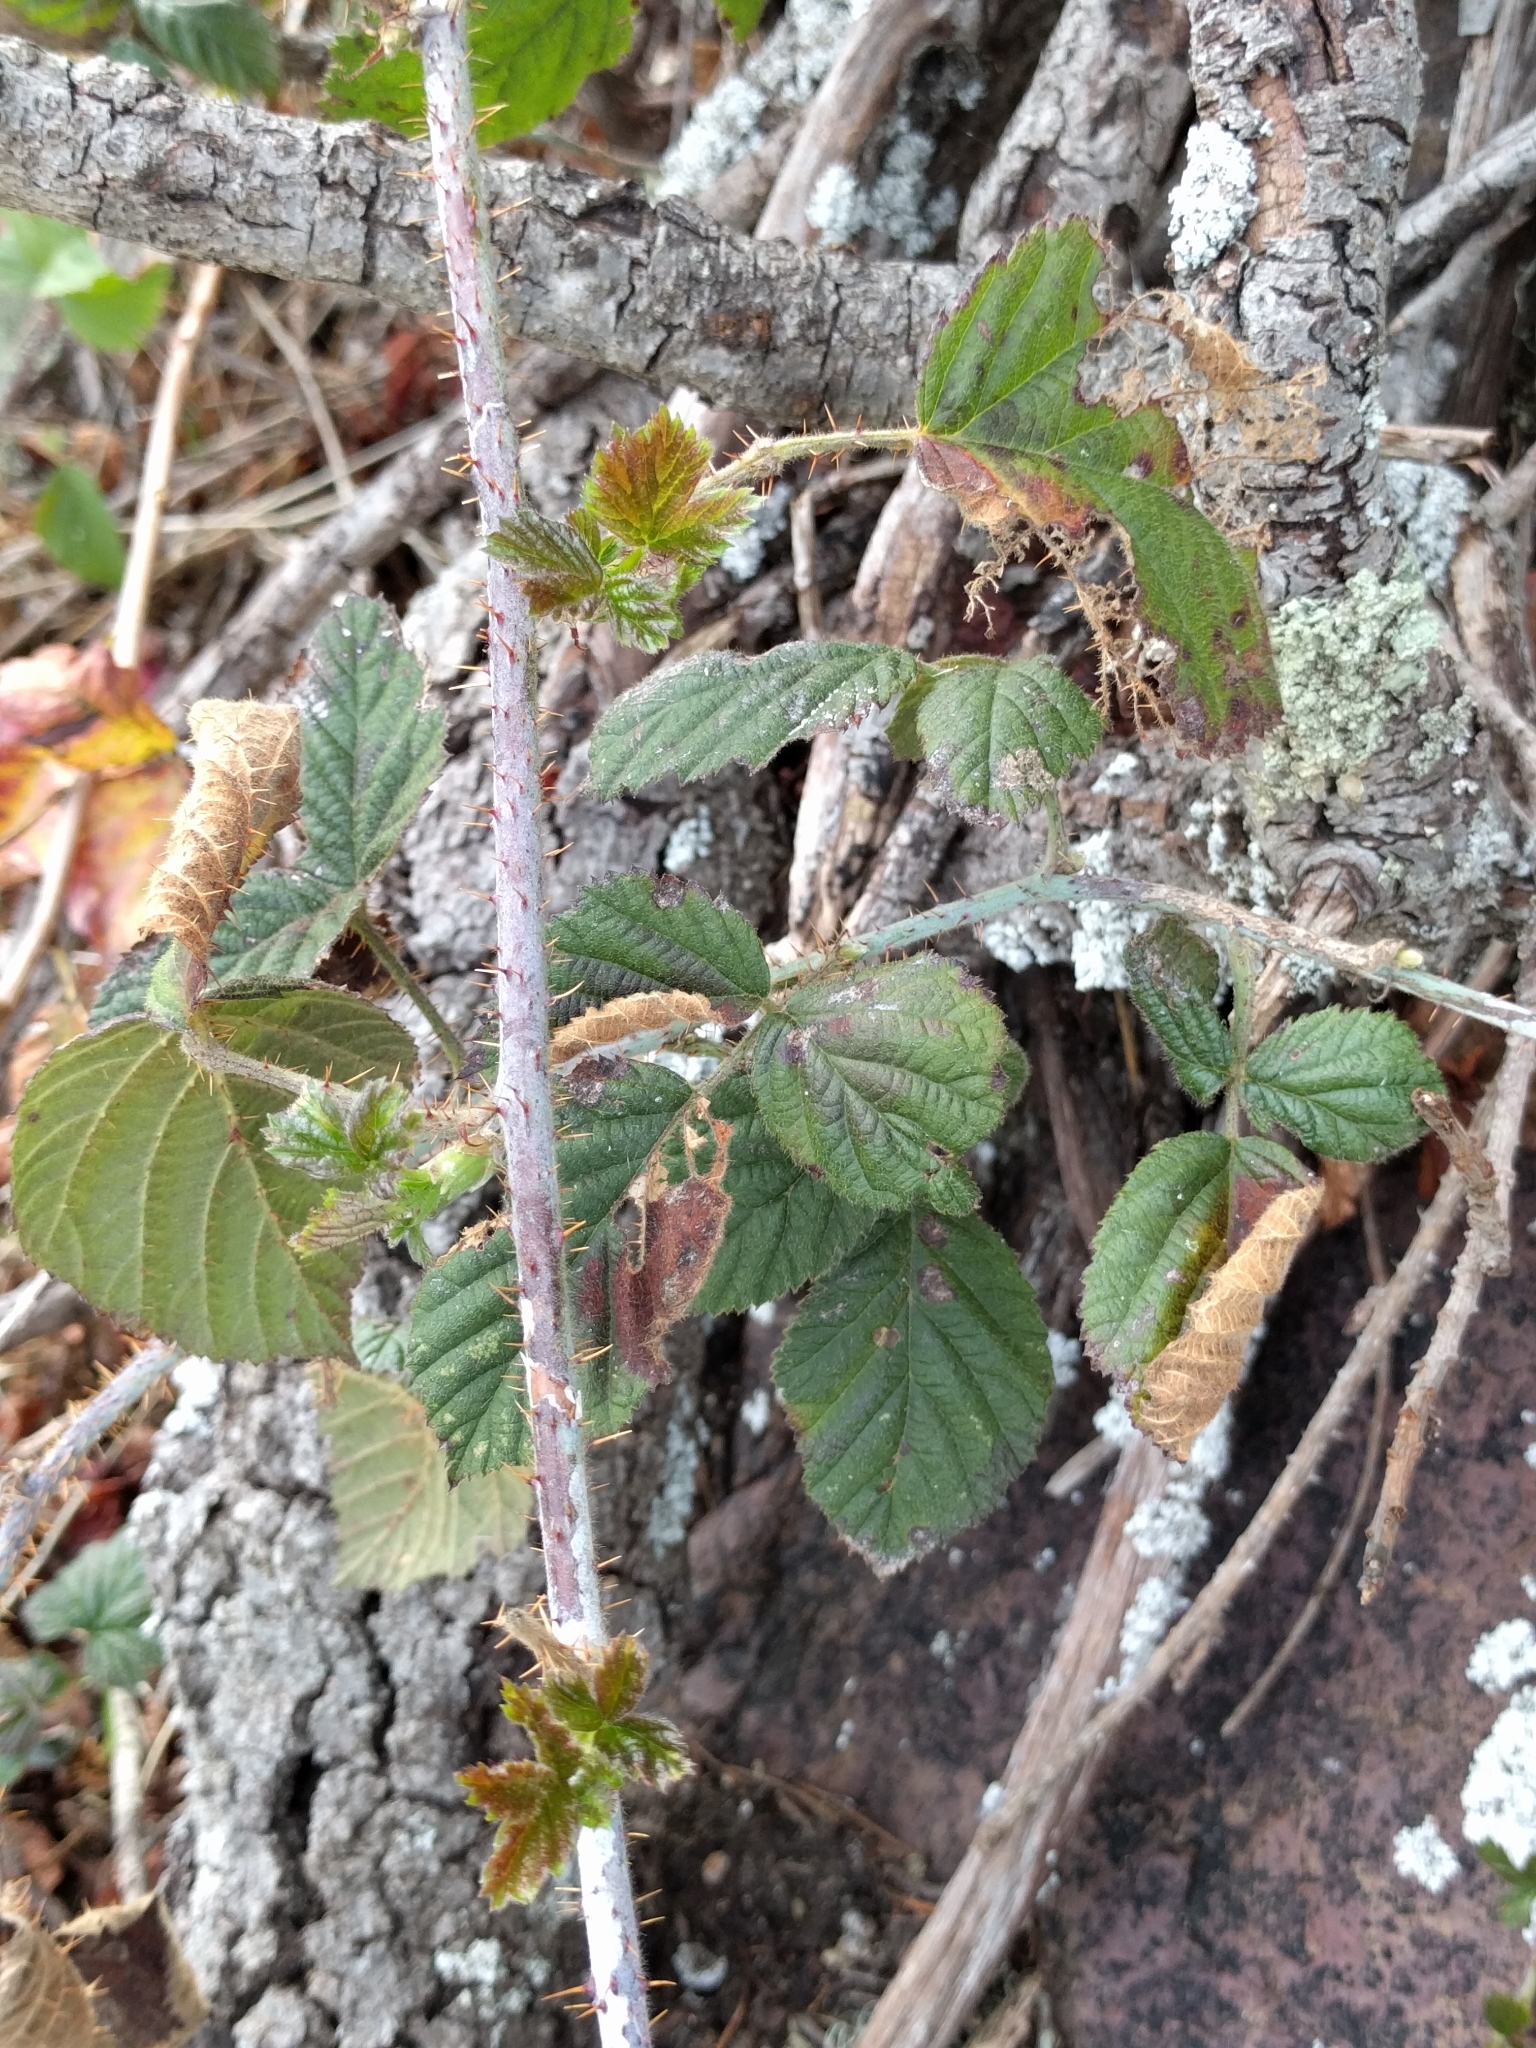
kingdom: Plantae
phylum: Tracheophyta
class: Magnoliopsida
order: Rosales
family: Rosaceae
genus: Rubus
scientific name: Rubus ursinus
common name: Pacific blackberry
